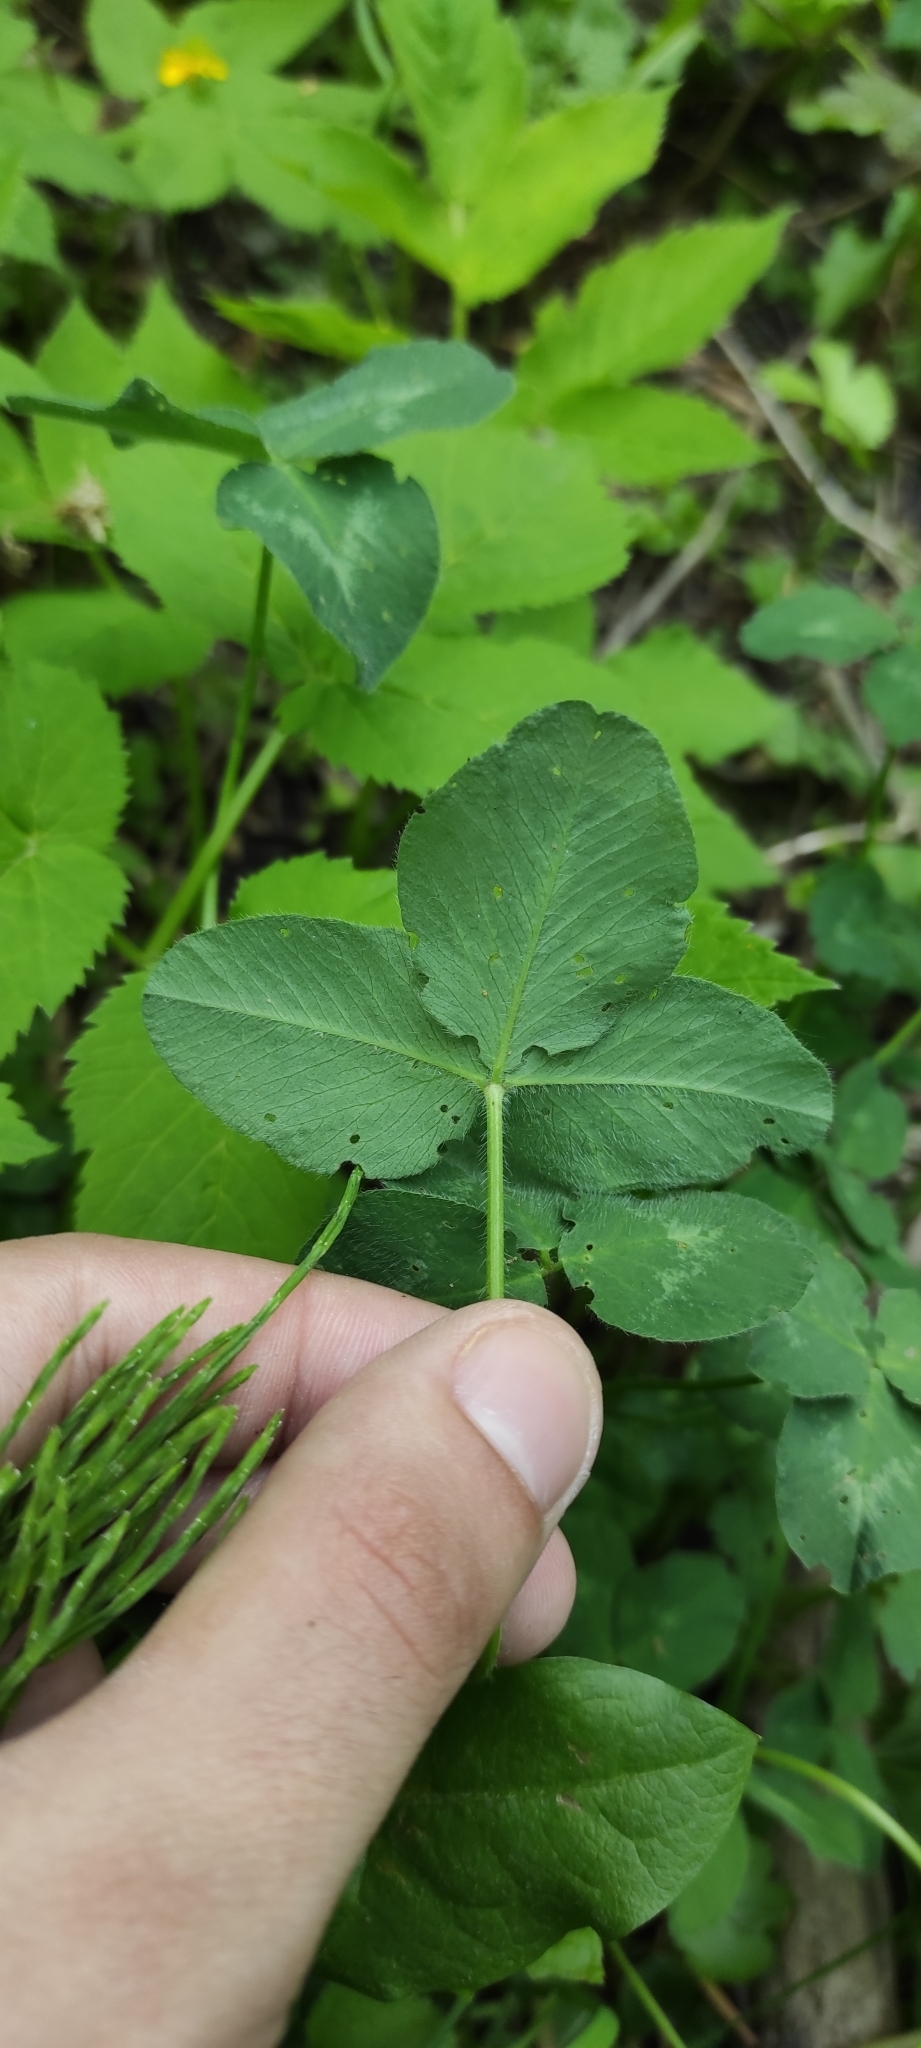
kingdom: Plantae
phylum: Tracheophyta
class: Magnoliopsida
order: Fabales
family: Fabaceae
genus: Trifolium
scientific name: Trifolium pratense
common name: Red clover
